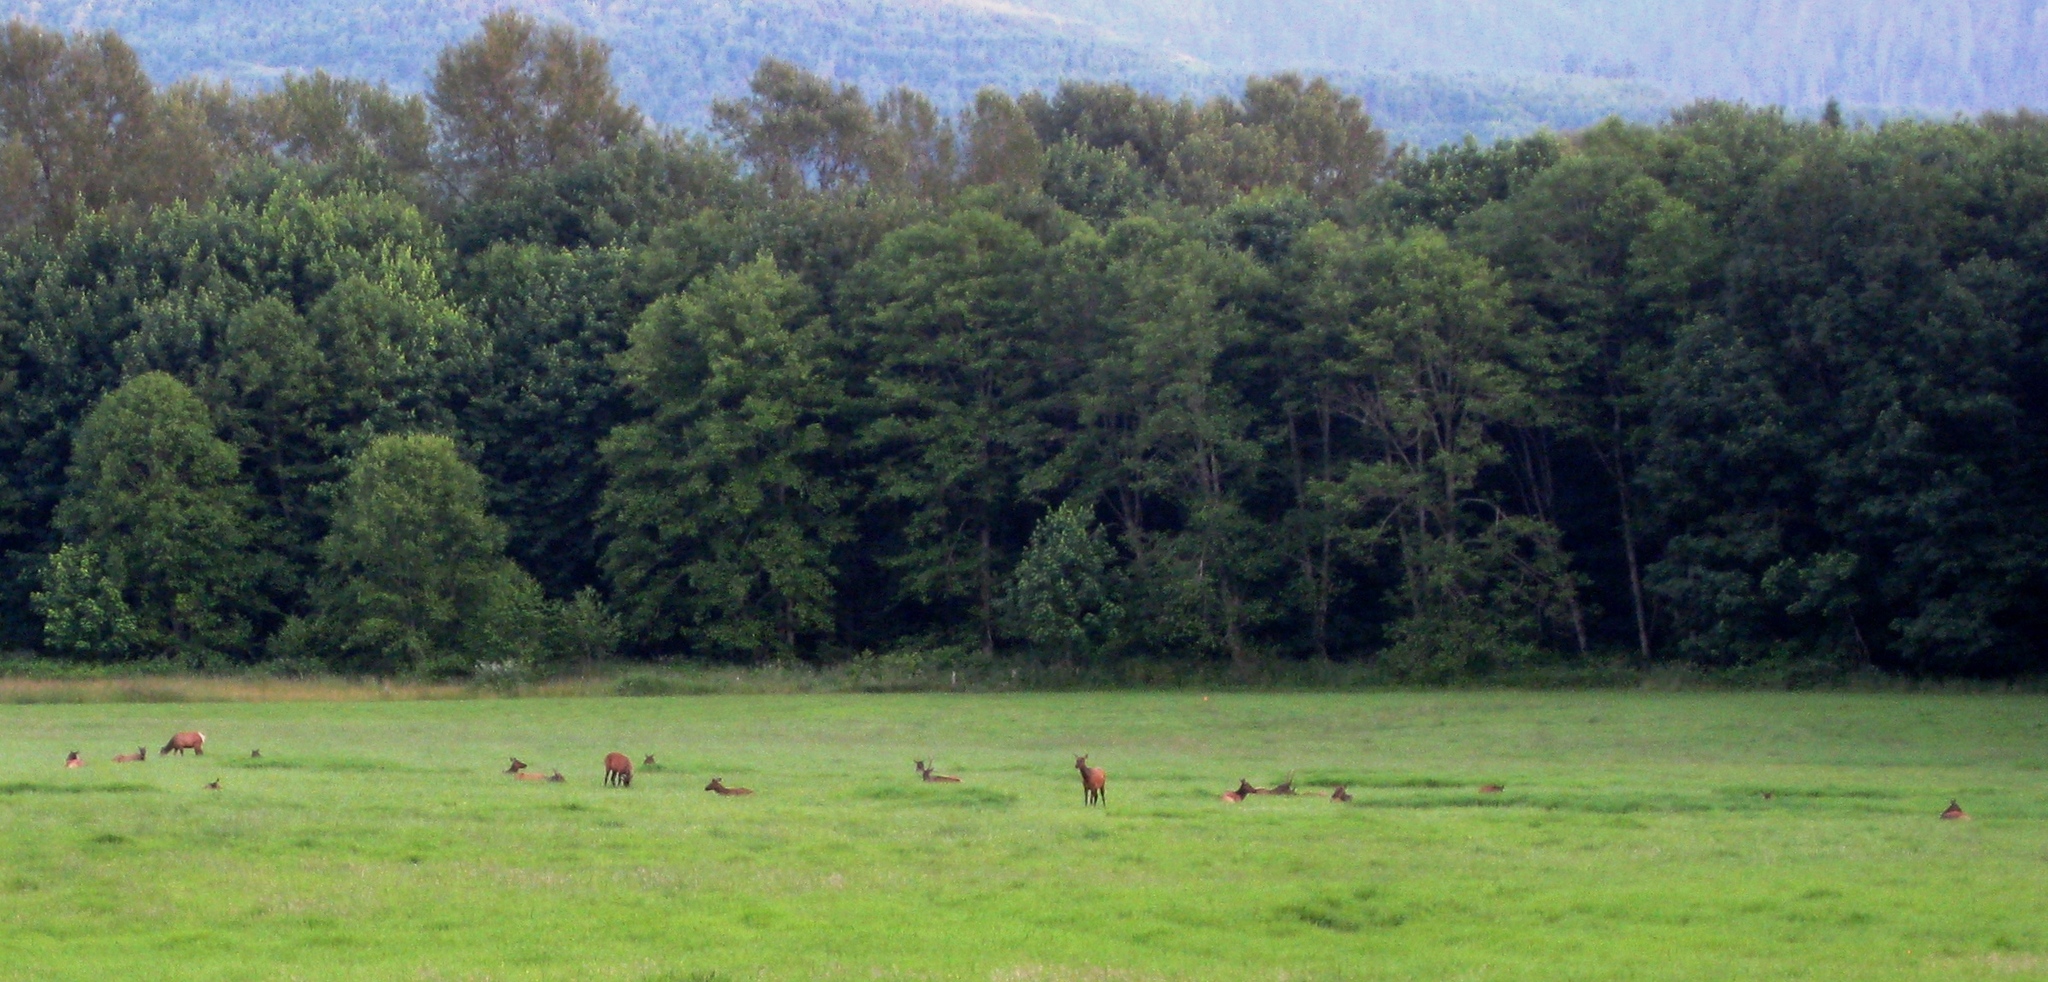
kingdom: Animalia
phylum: Chordata
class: Mammalia
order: Artiodactyla
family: Cervidae
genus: Cervus
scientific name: Cervus elaphus
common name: Red deer
